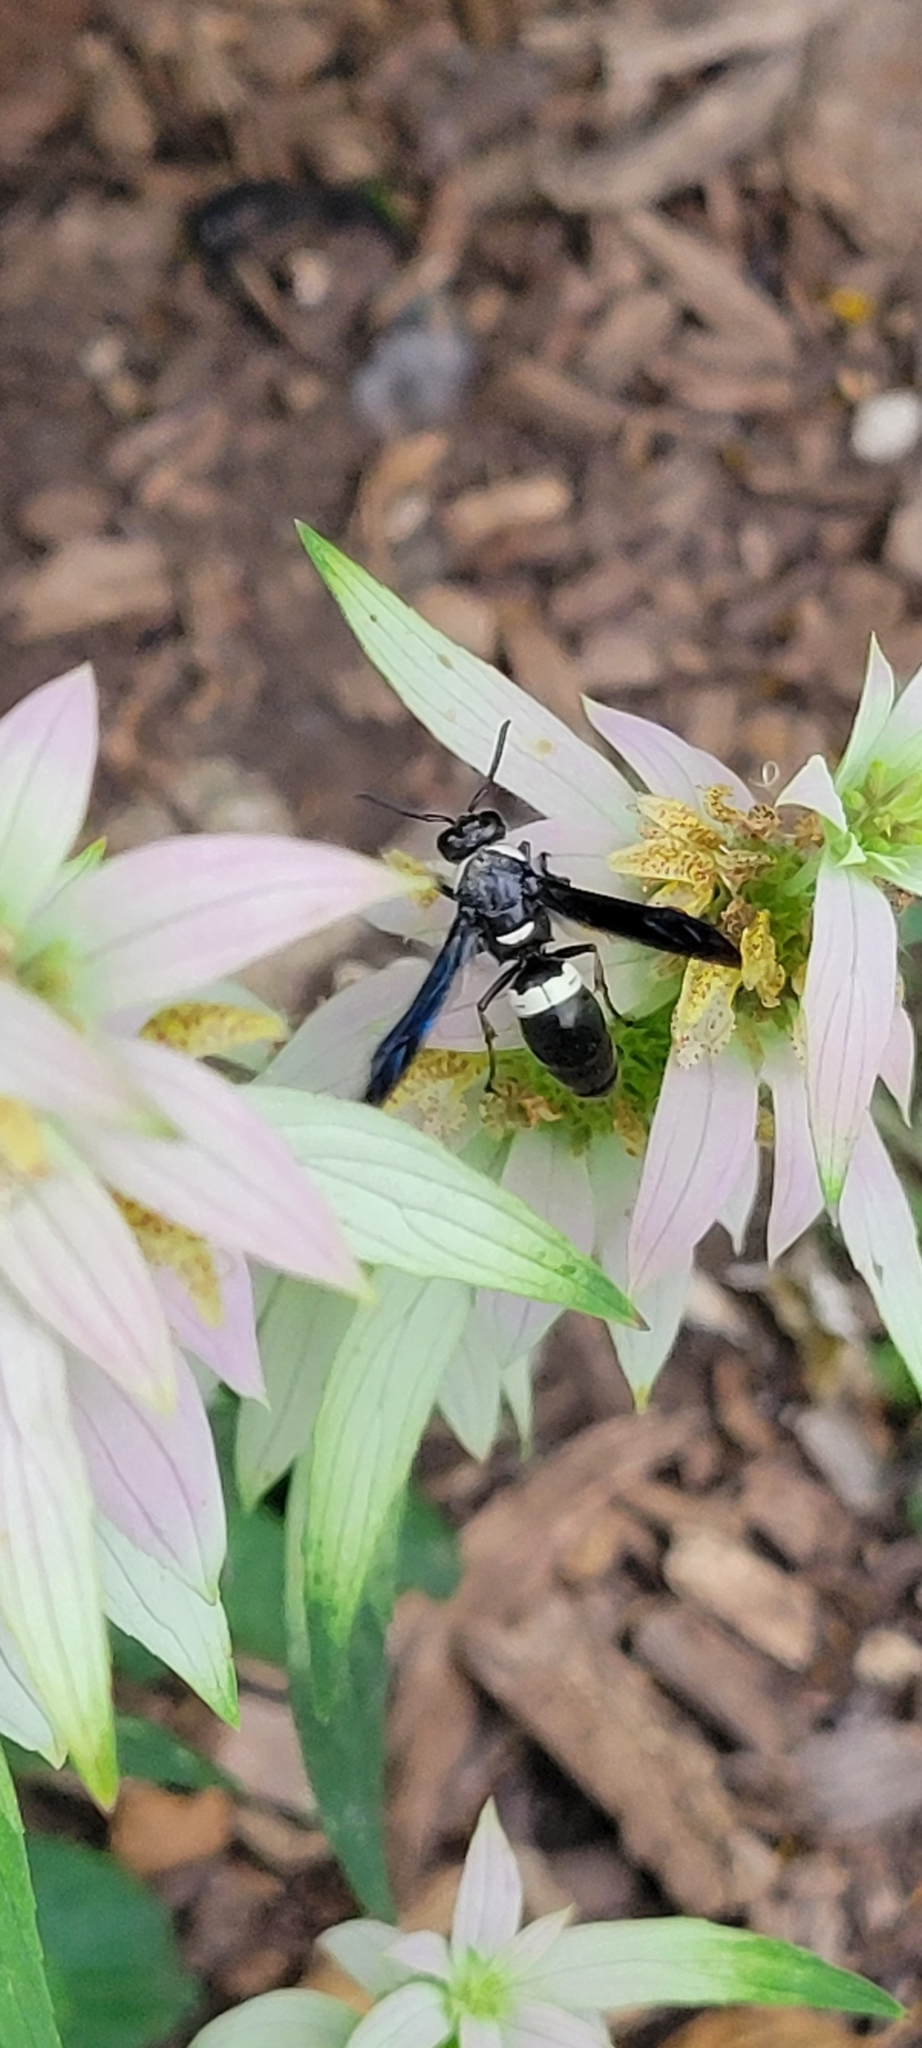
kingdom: Animalia
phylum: Arthropoda
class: Insecta
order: Hymenoptera
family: Eumenidae
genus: Monobia
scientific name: Monobia quadridens
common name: Four-toothed mason wasp
